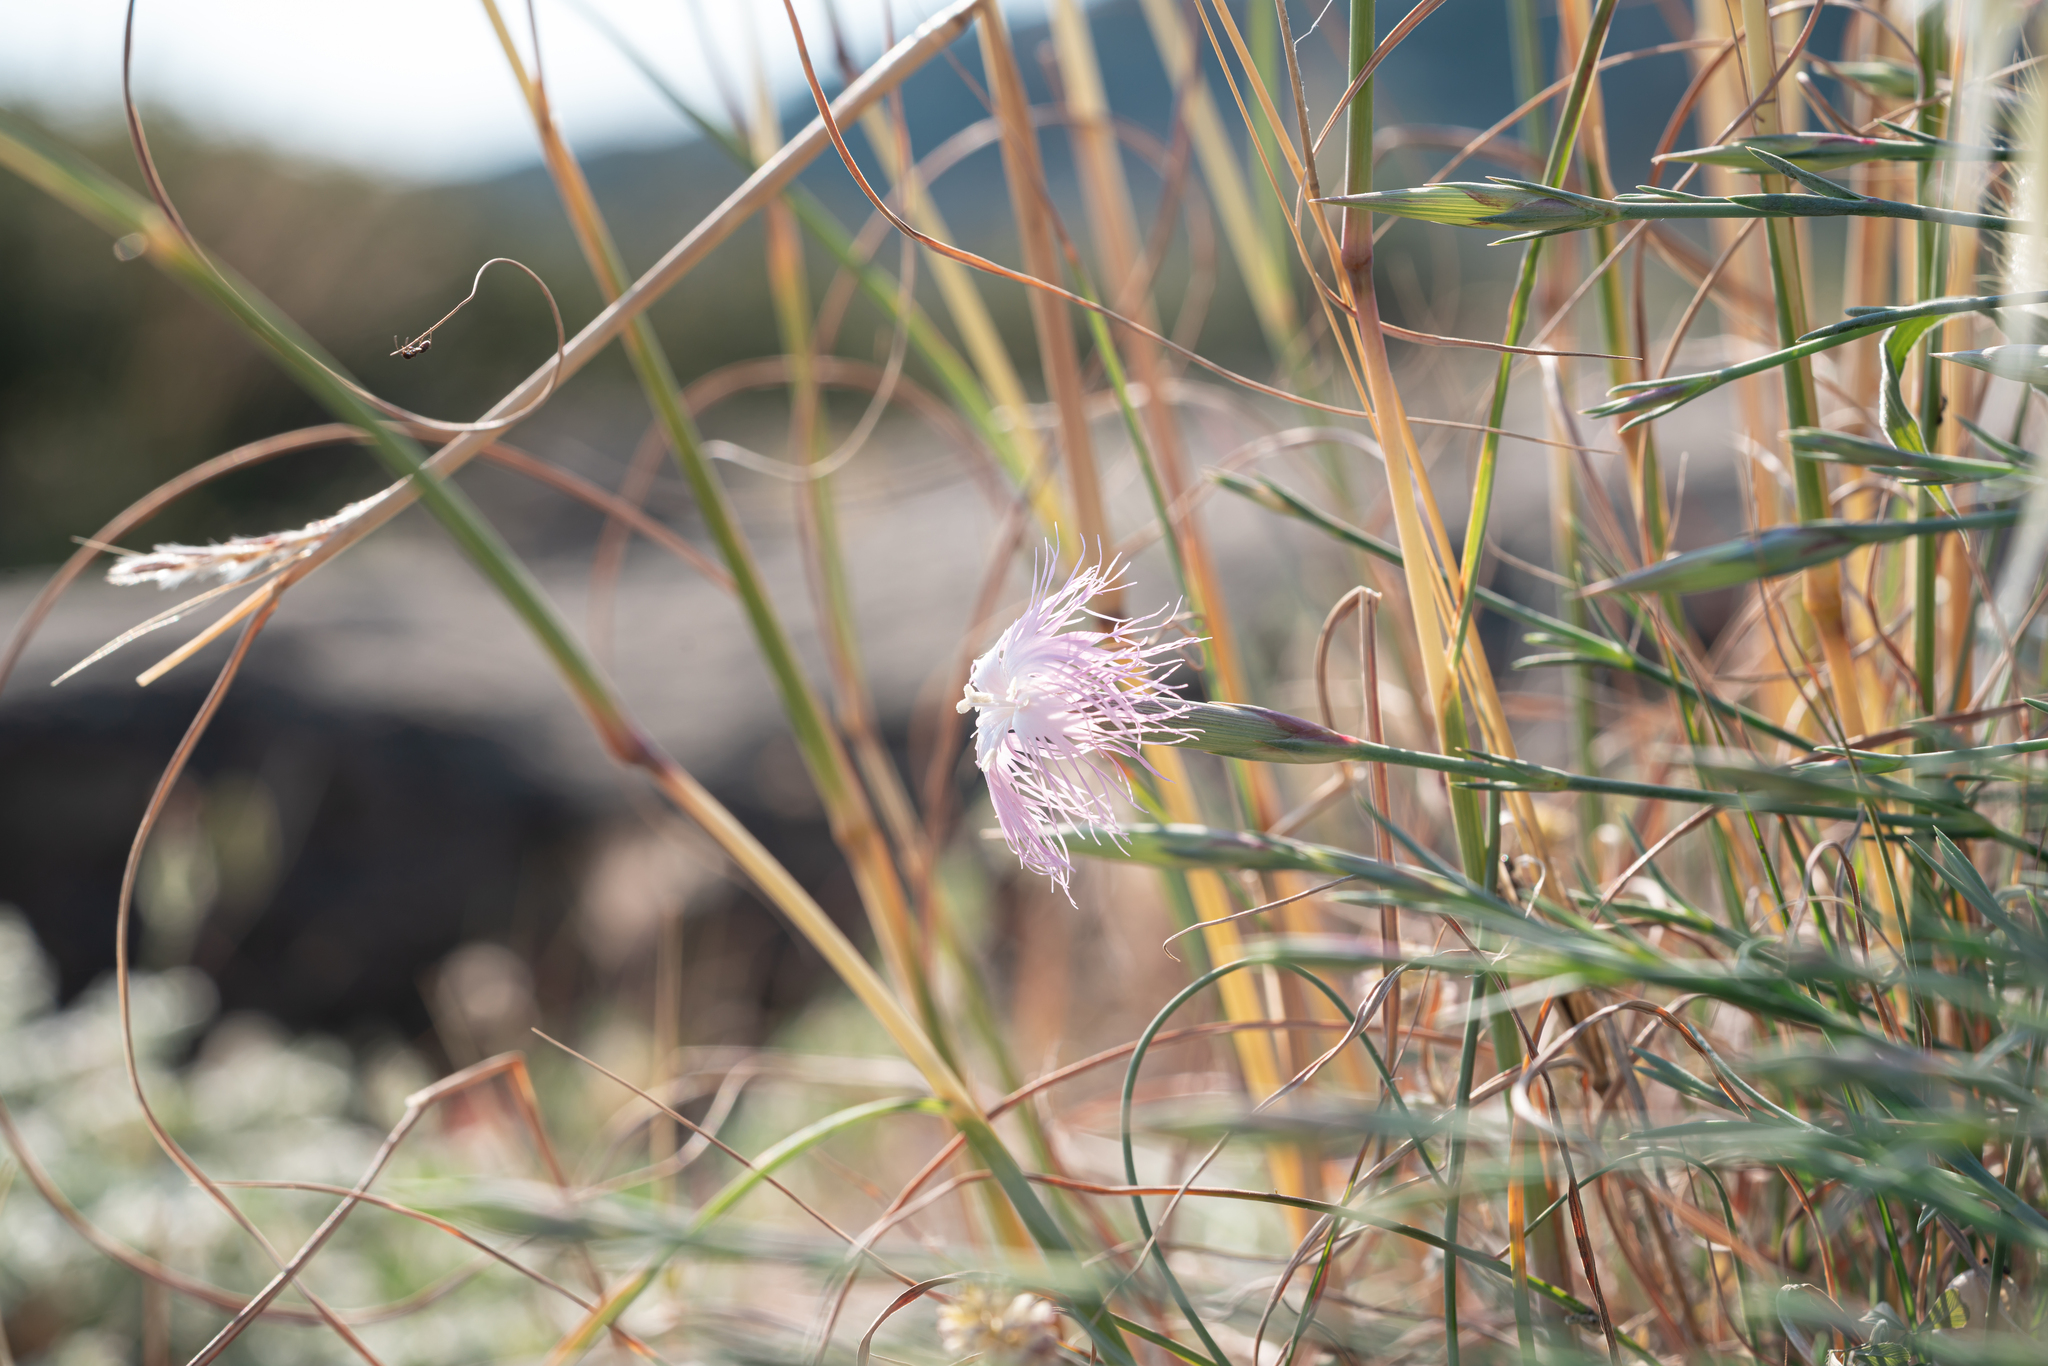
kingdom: Plantae
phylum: Tracheophyta
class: Magnoliopsida
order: Caryophyllales
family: Caryophyllaceae
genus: Dianthus
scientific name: Dianthus crinitus
